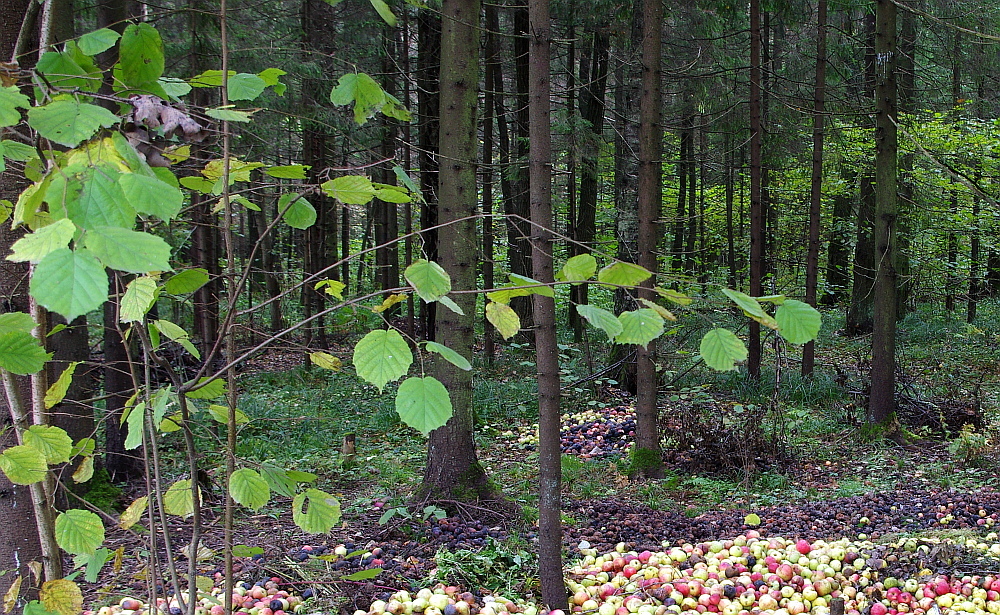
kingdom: Plantae
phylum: Tracheophyta
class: Magnoliopsida
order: Fagales
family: Betulaceae
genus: Corylus
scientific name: Corylus avellana
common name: European hazel
